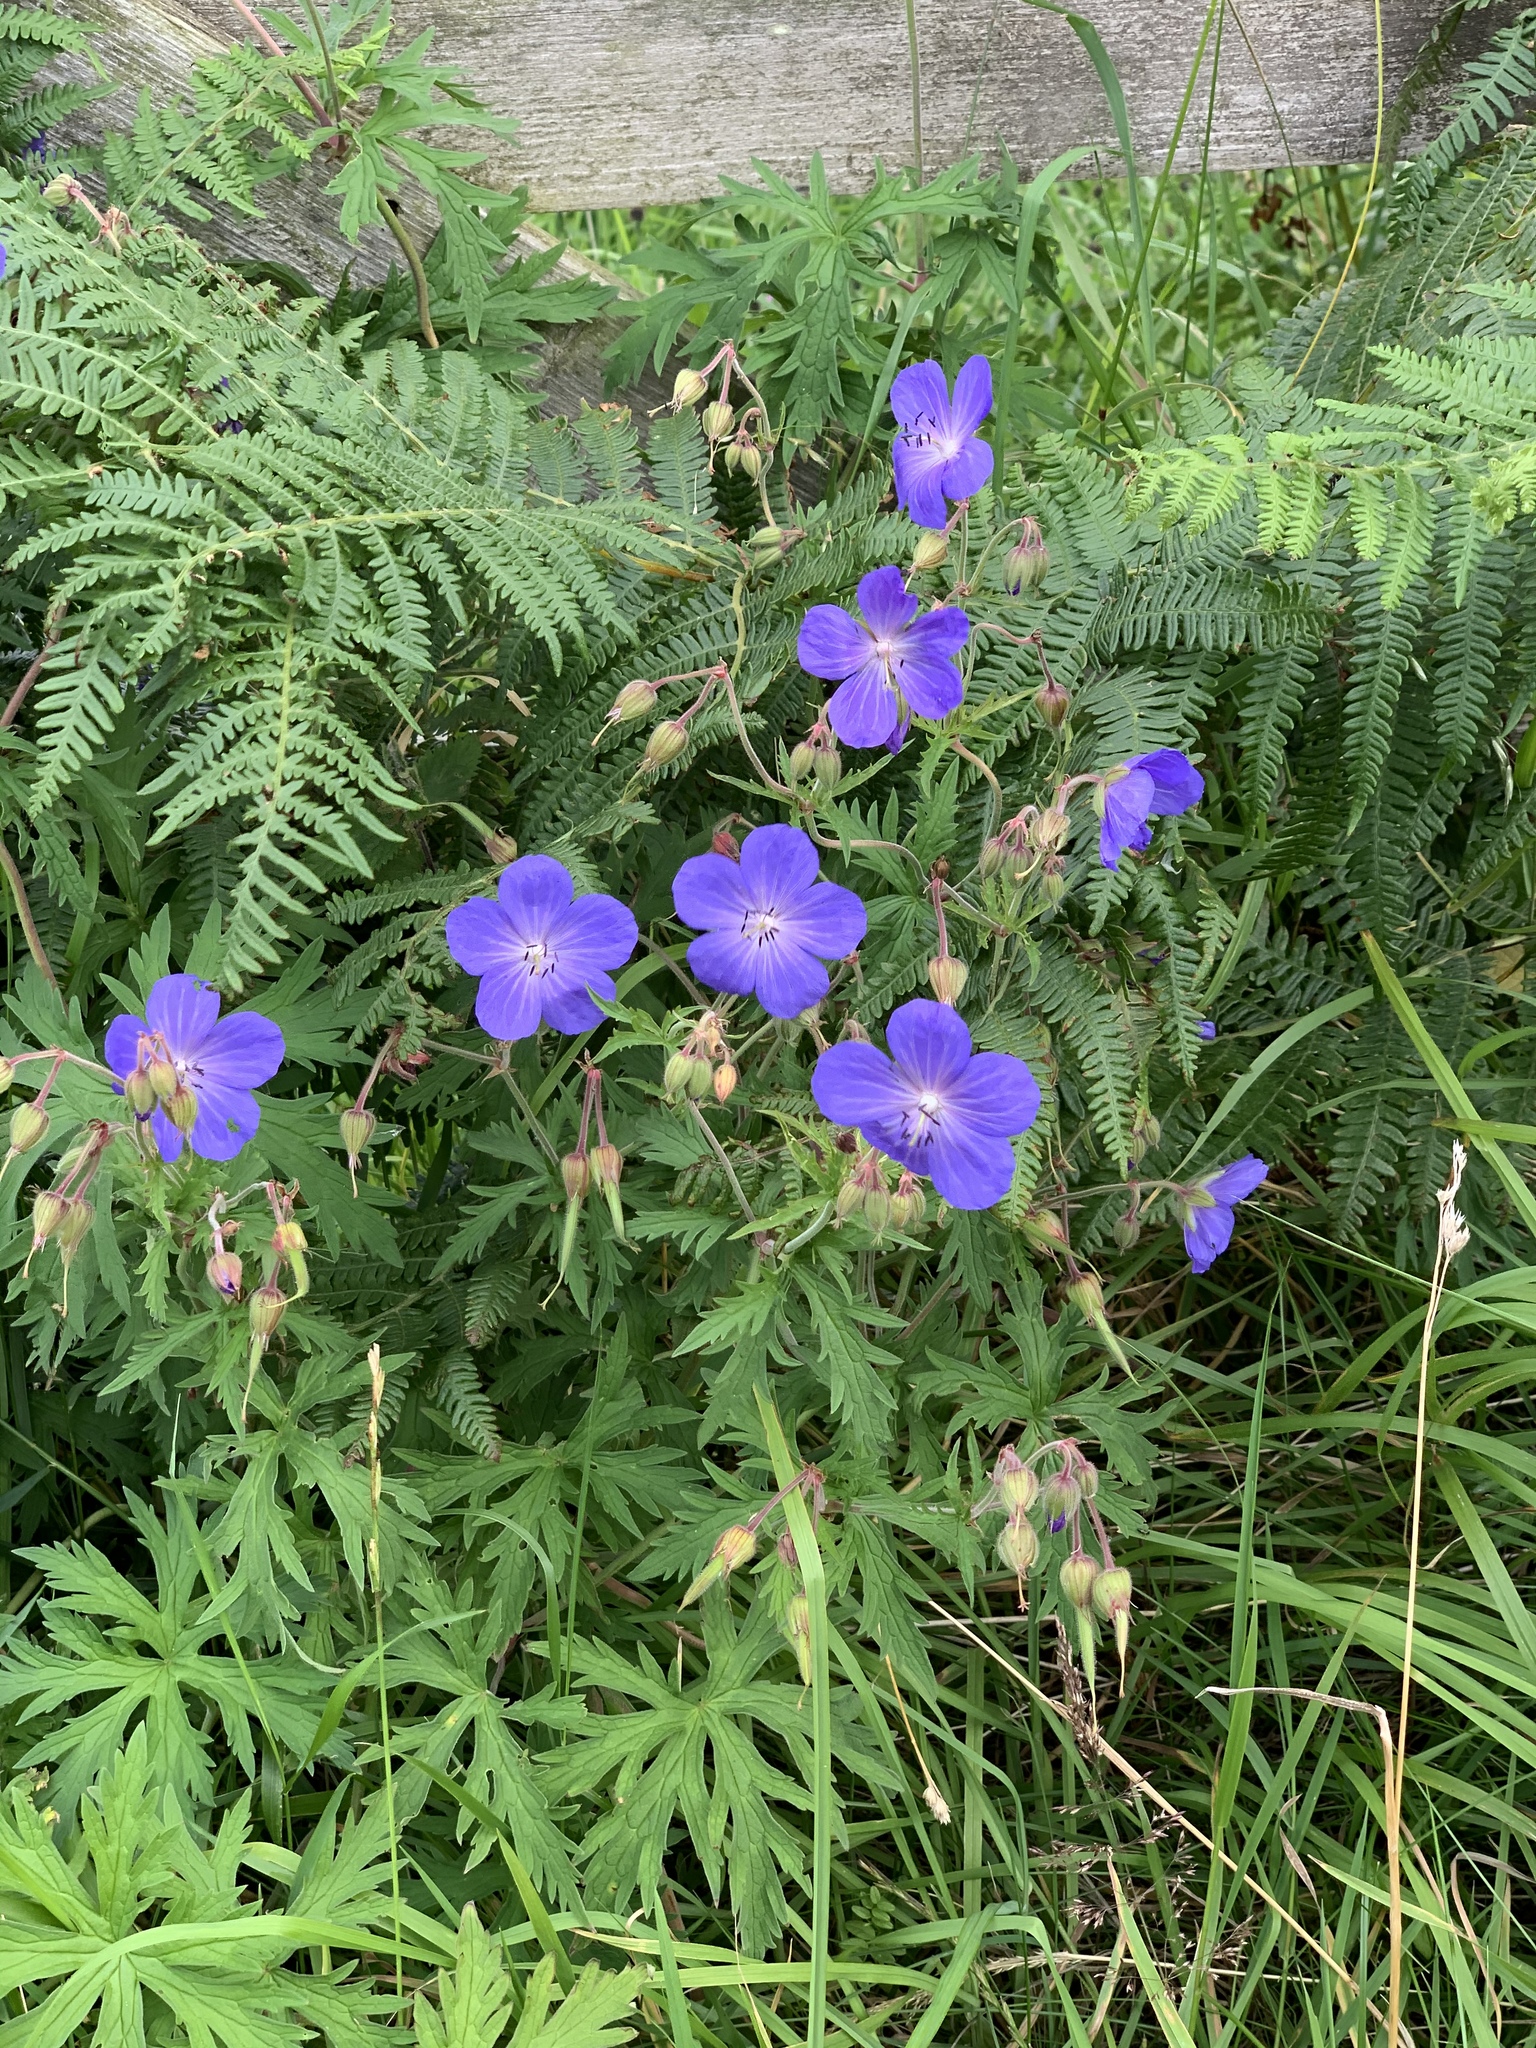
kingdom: Plantae
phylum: Tracheophyta
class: Magnoliopsida
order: Geraniales
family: Geraniaceae
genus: Geranium
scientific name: Geranium pratense
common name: Meadow crane's-bill
